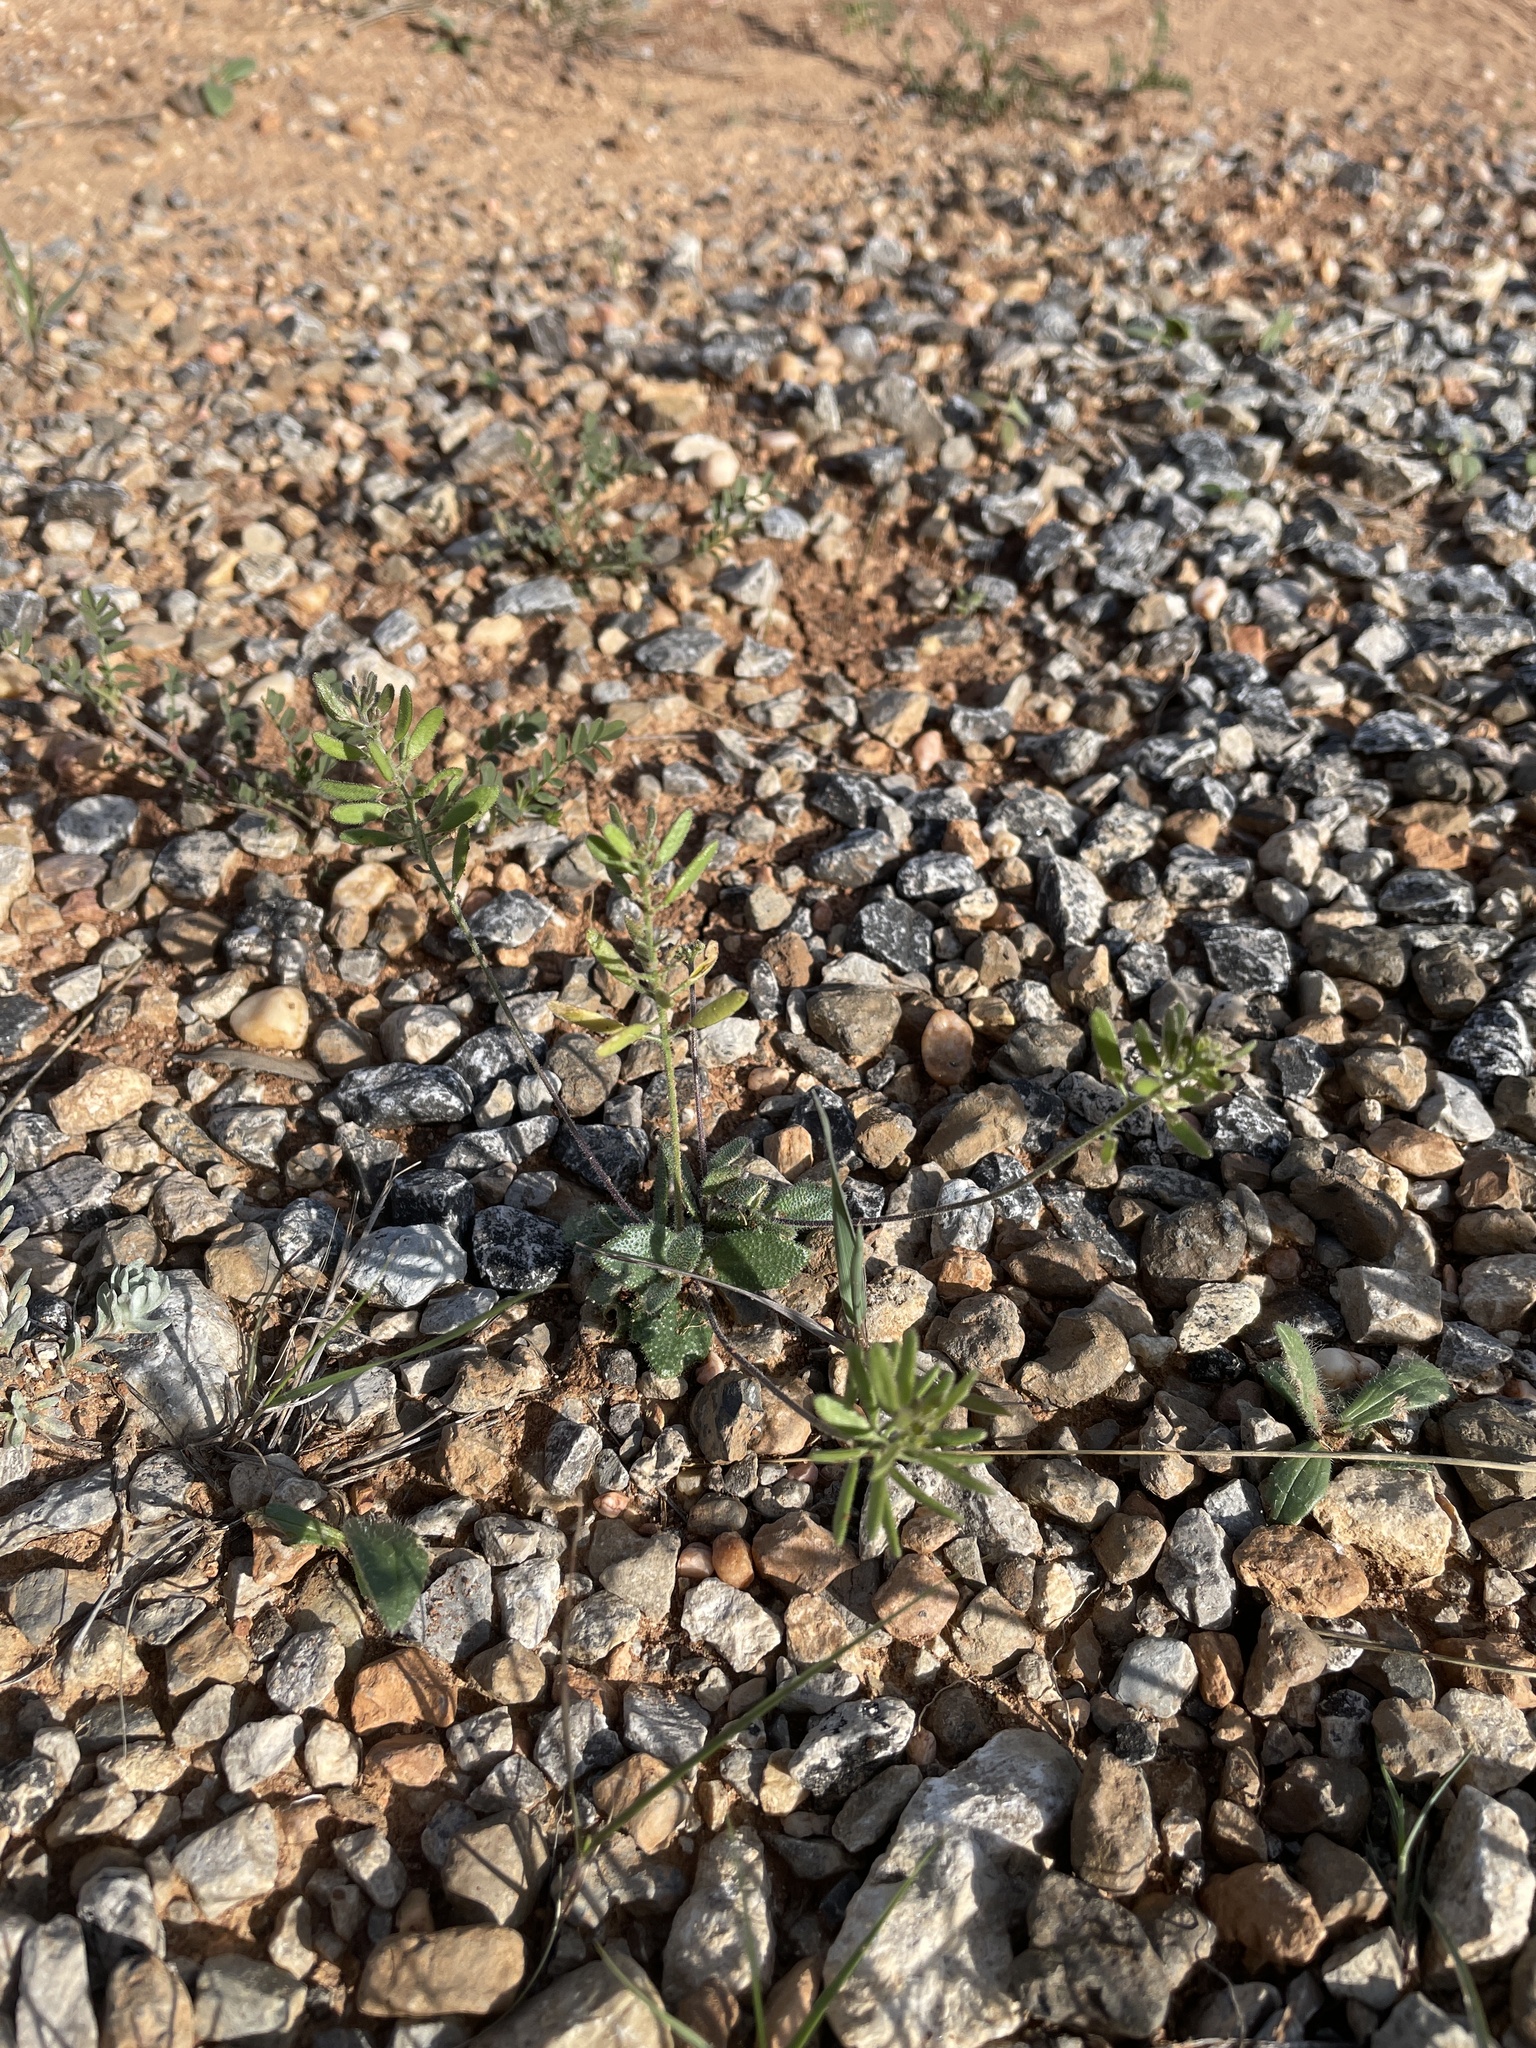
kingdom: Plantae
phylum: Tracheophyta
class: Magnoliopsida
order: Brassicales
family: Brassicaceae
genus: Tomostima
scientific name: Tomostima cuneifolia
